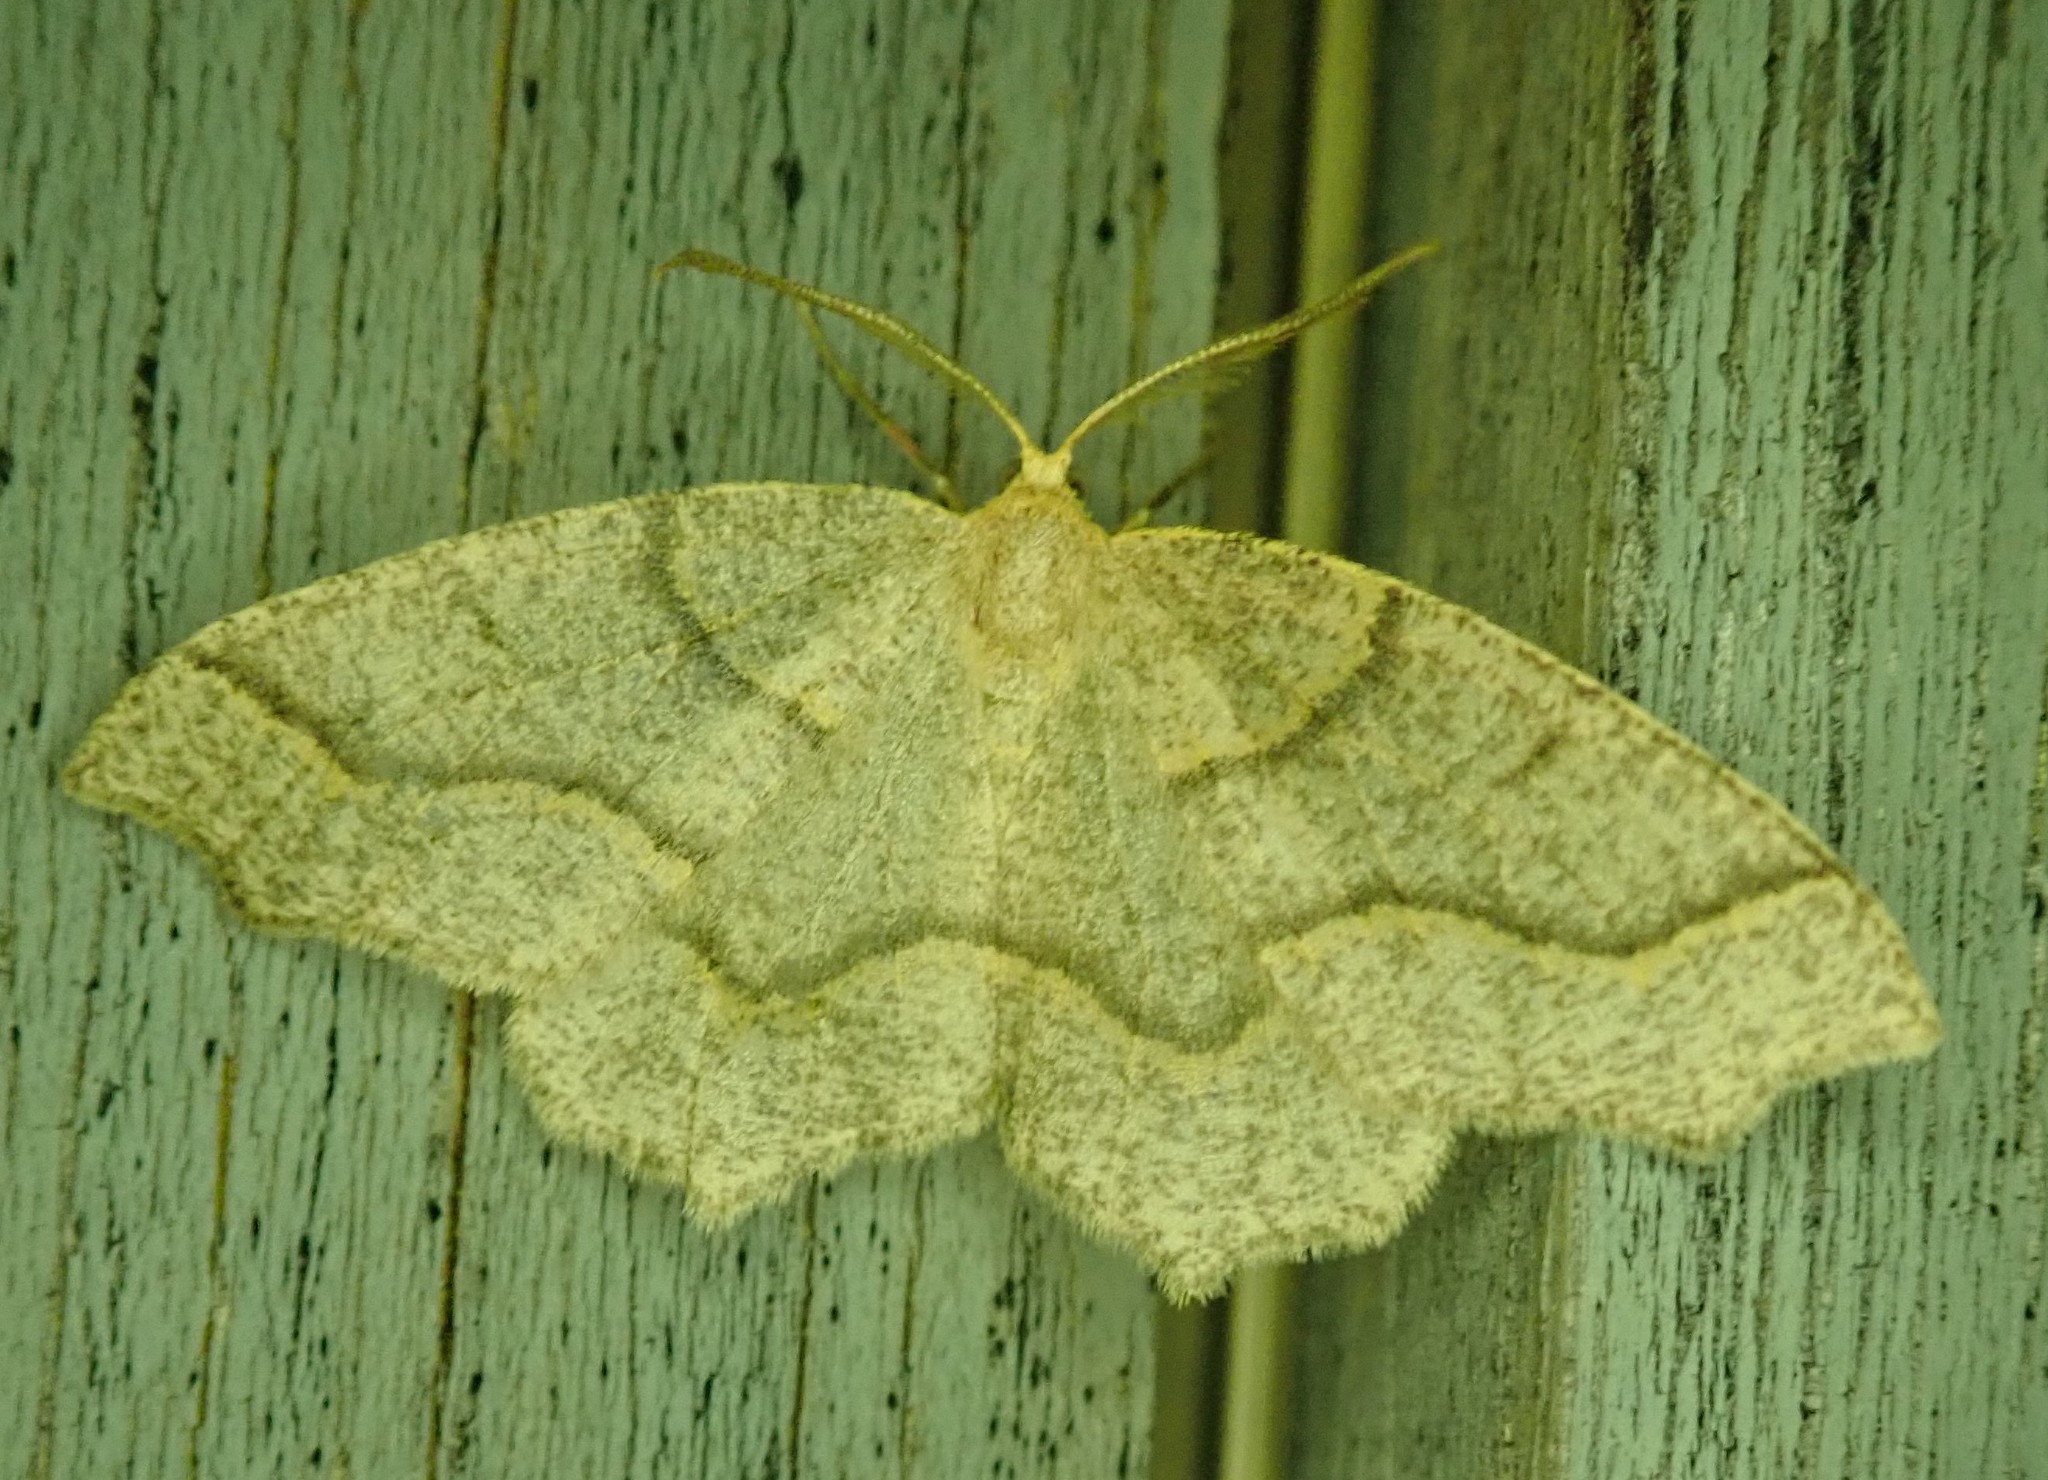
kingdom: Animalia
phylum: Arthropoda
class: Insecta
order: Lepidoptera
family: Geometridae
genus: Lambdina
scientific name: Lambdina fiscellaria
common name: Hemlock looper
